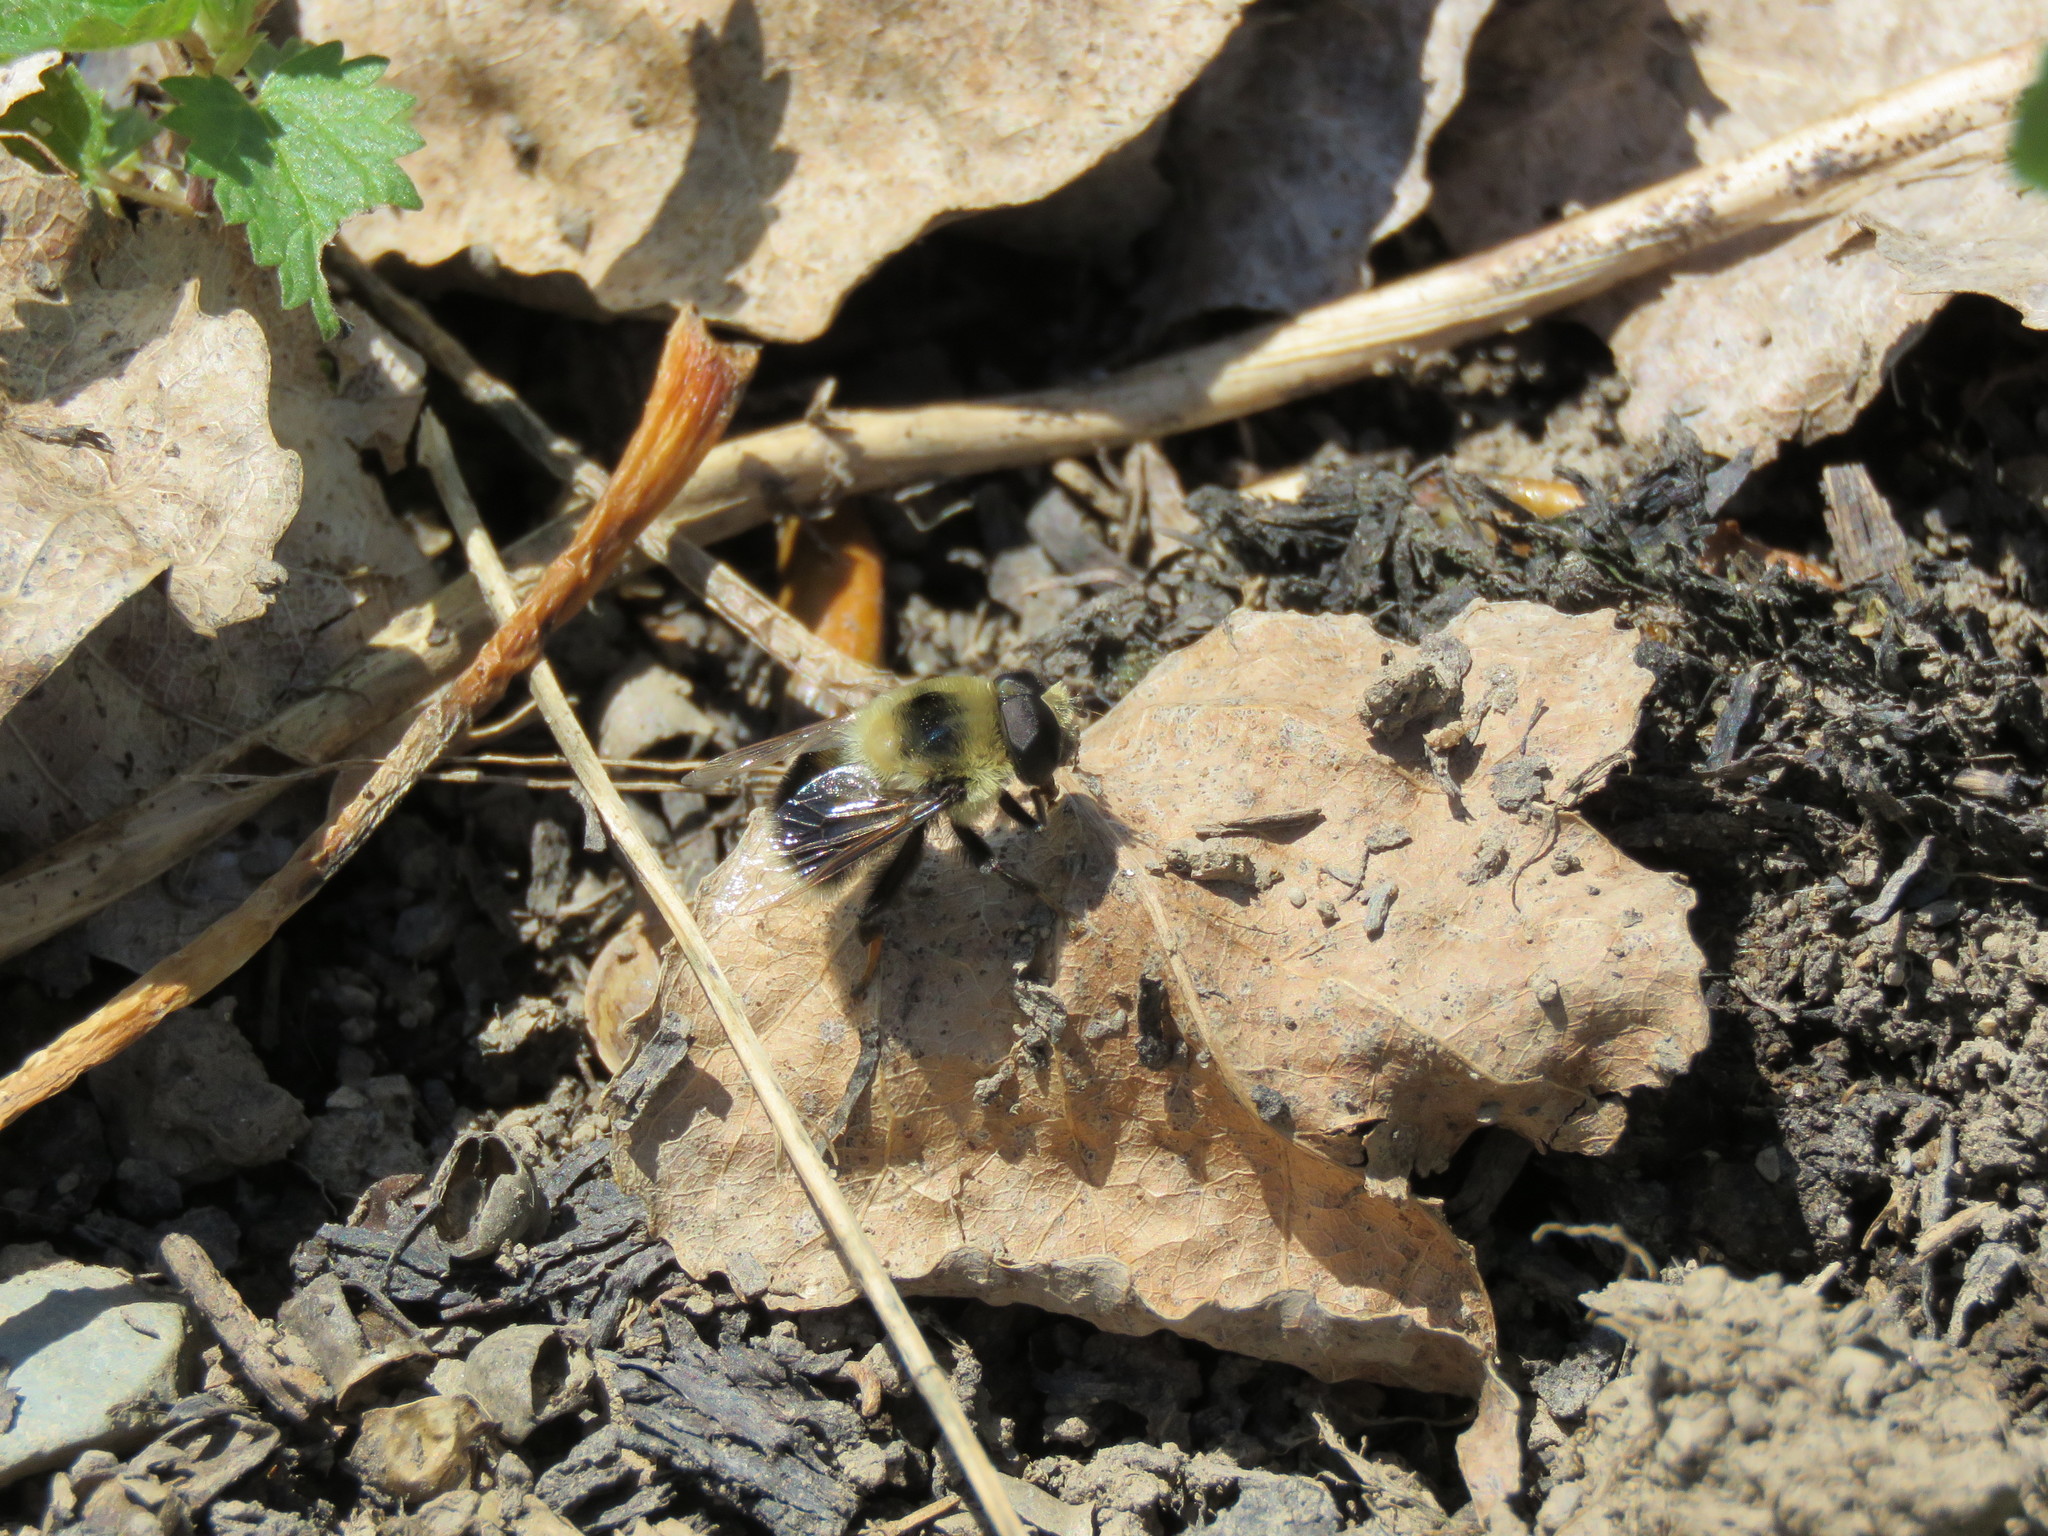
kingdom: Animalia
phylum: Arthropoda
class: Insecta
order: Diptera
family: Syrphidae
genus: Eristalis
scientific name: Eristalis flavipes
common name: Orange-legged drone fly
